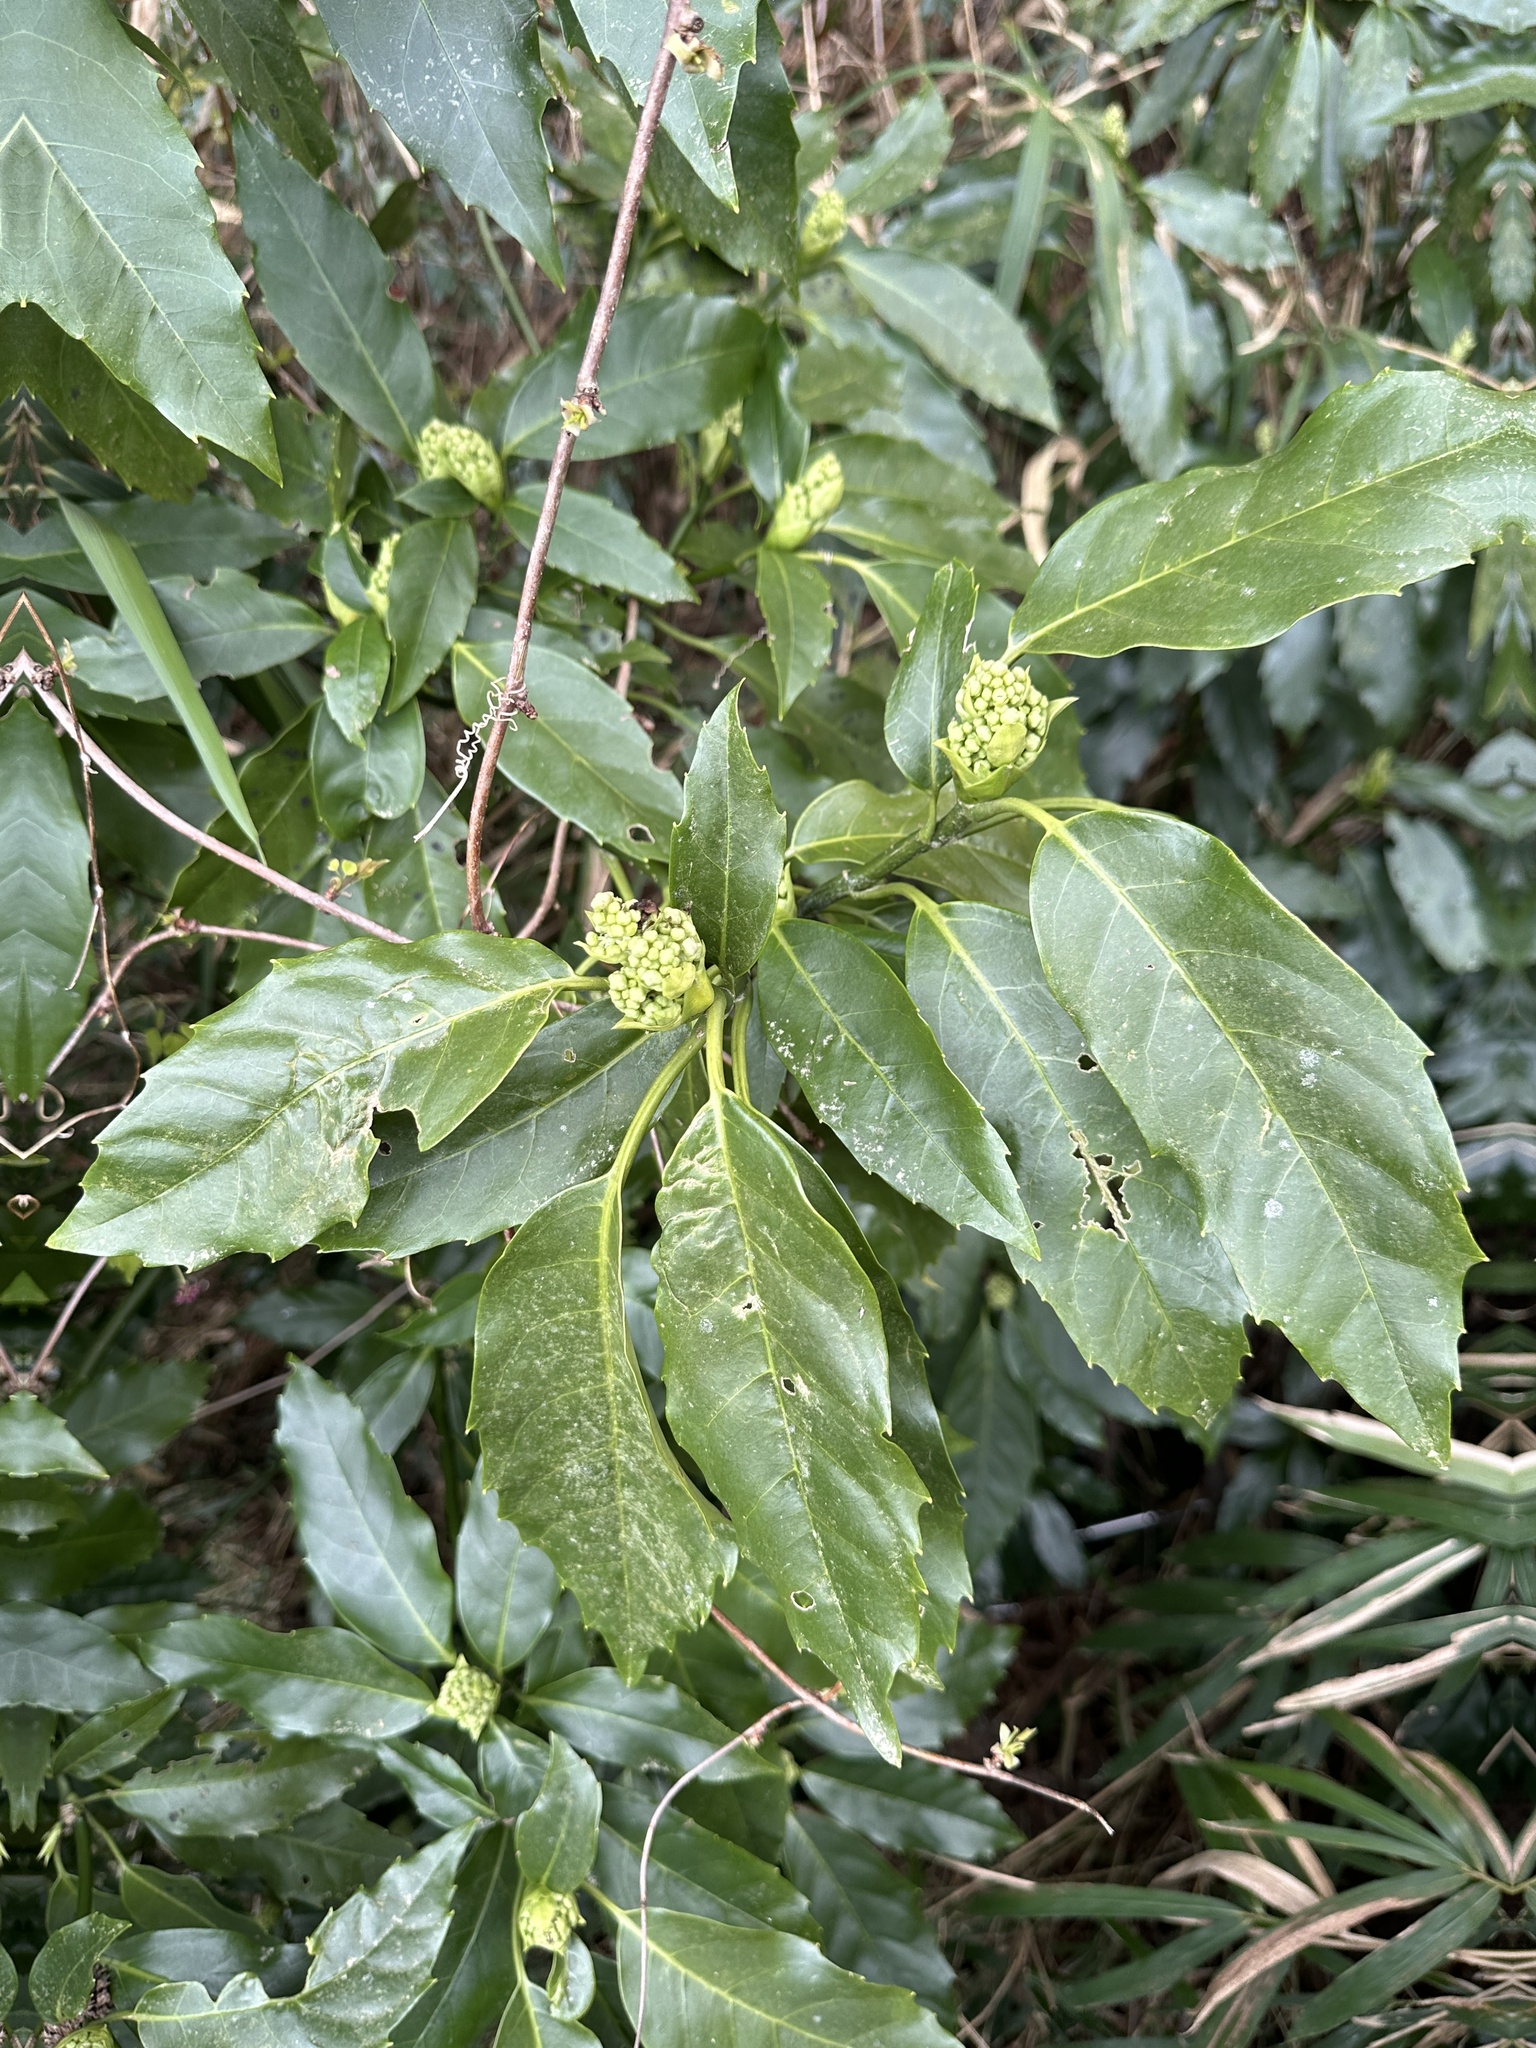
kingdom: Plantae
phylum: Tracheophyta
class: Magnoliopsida
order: Garryales
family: Garryaceae
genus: Aucuba
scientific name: Aucuba japonica
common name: Spotted-laurel
